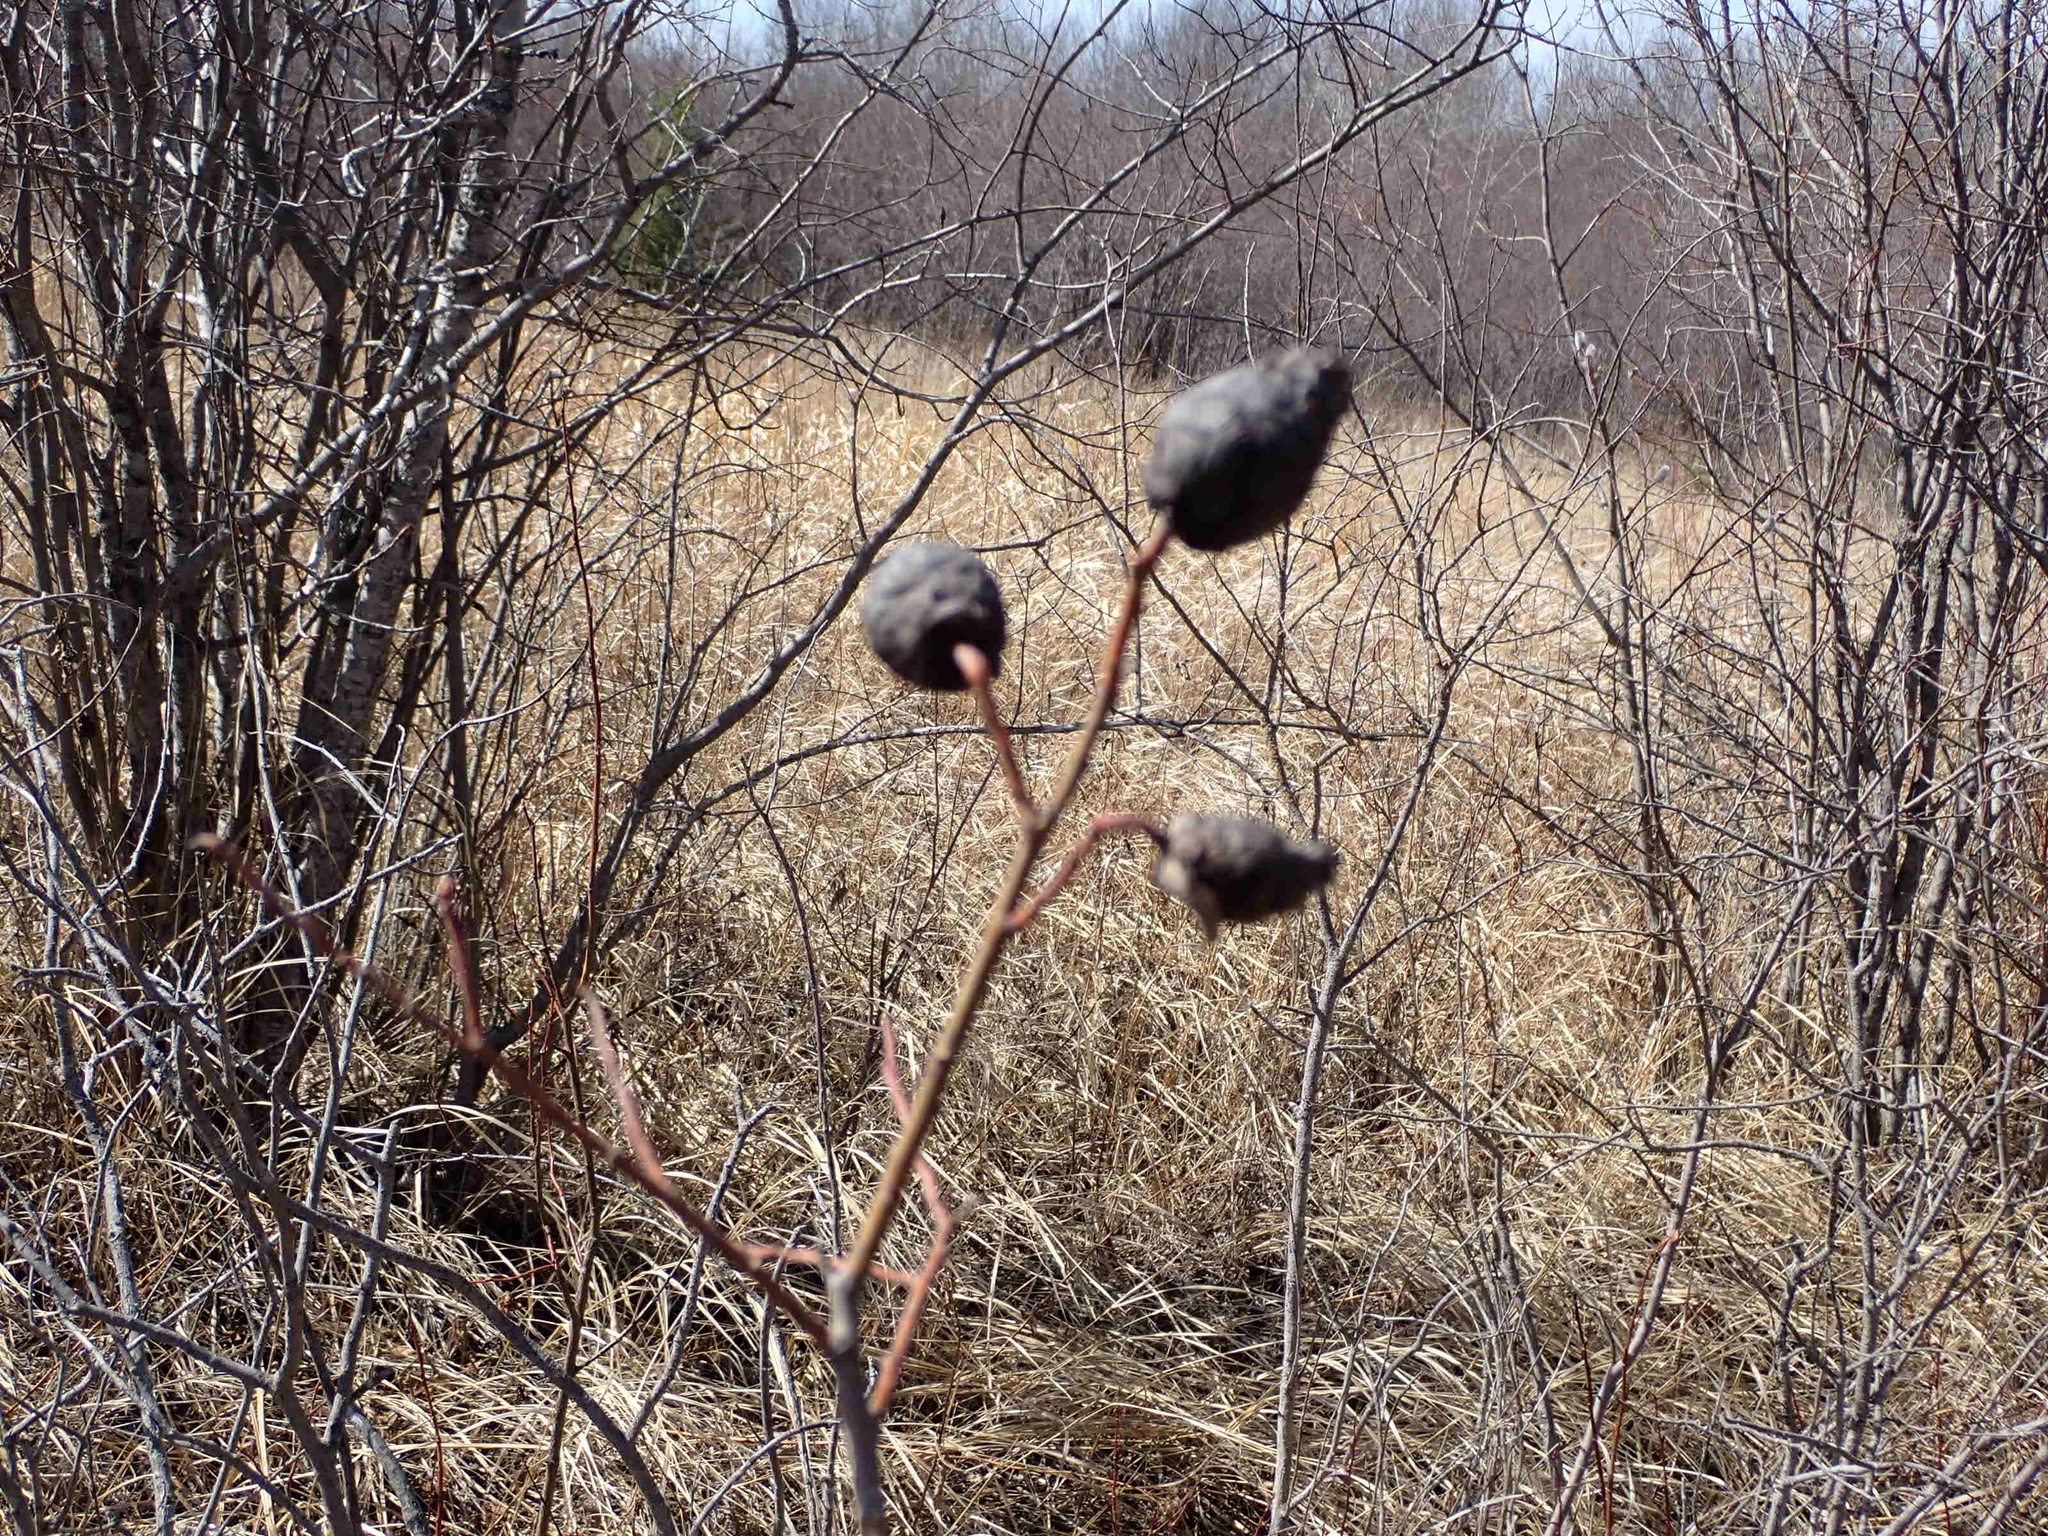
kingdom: Animalia
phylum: Arthropoda
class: Insecta
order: Diptera
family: Cecidomyiidae
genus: Rabdophaga
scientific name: Rabdophaga strobiloides
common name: Willow pinecone gall midge
